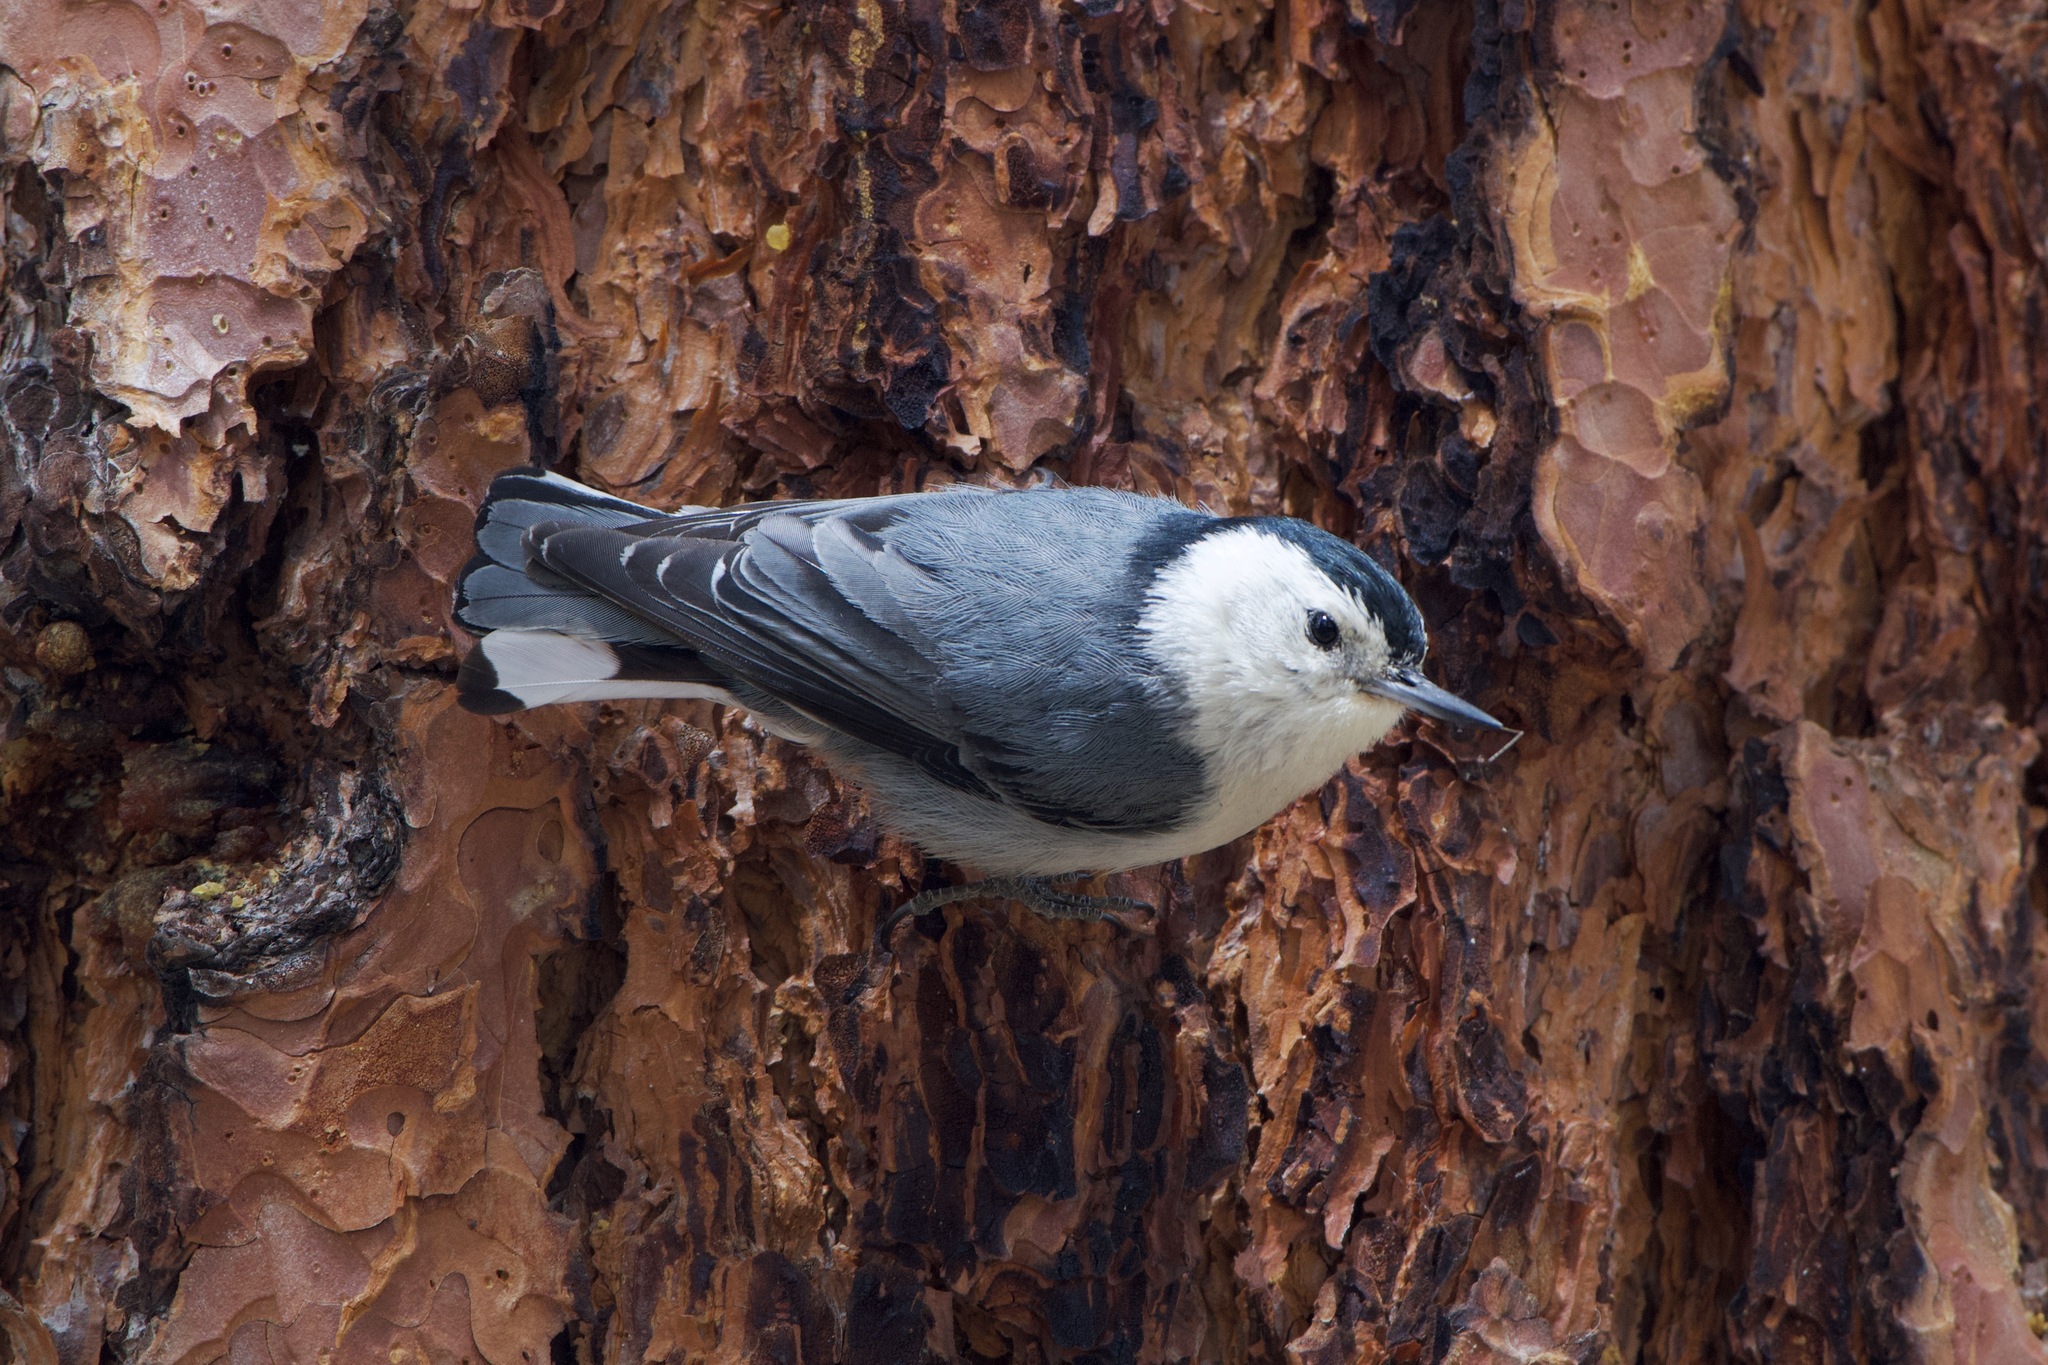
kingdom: Animalia
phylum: Chordata
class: Aves
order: Passeriformes
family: Sittidae
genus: Sitta
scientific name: Sitta carolinensis
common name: White-breasted nuthatch
